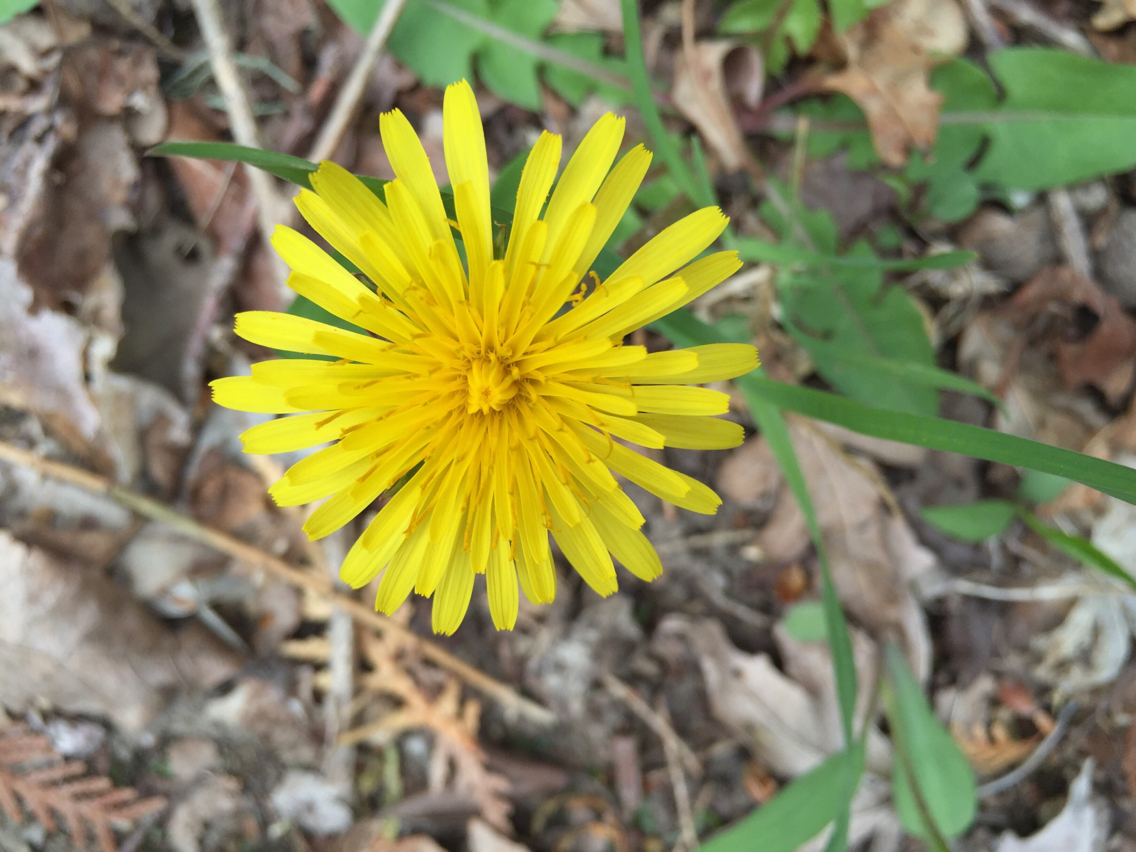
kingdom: Plantae
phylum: Tracheophyta
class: Magnoliopsida
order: Asterales
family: Asteraceae
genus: Taraxacum
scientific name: Taraxacum
